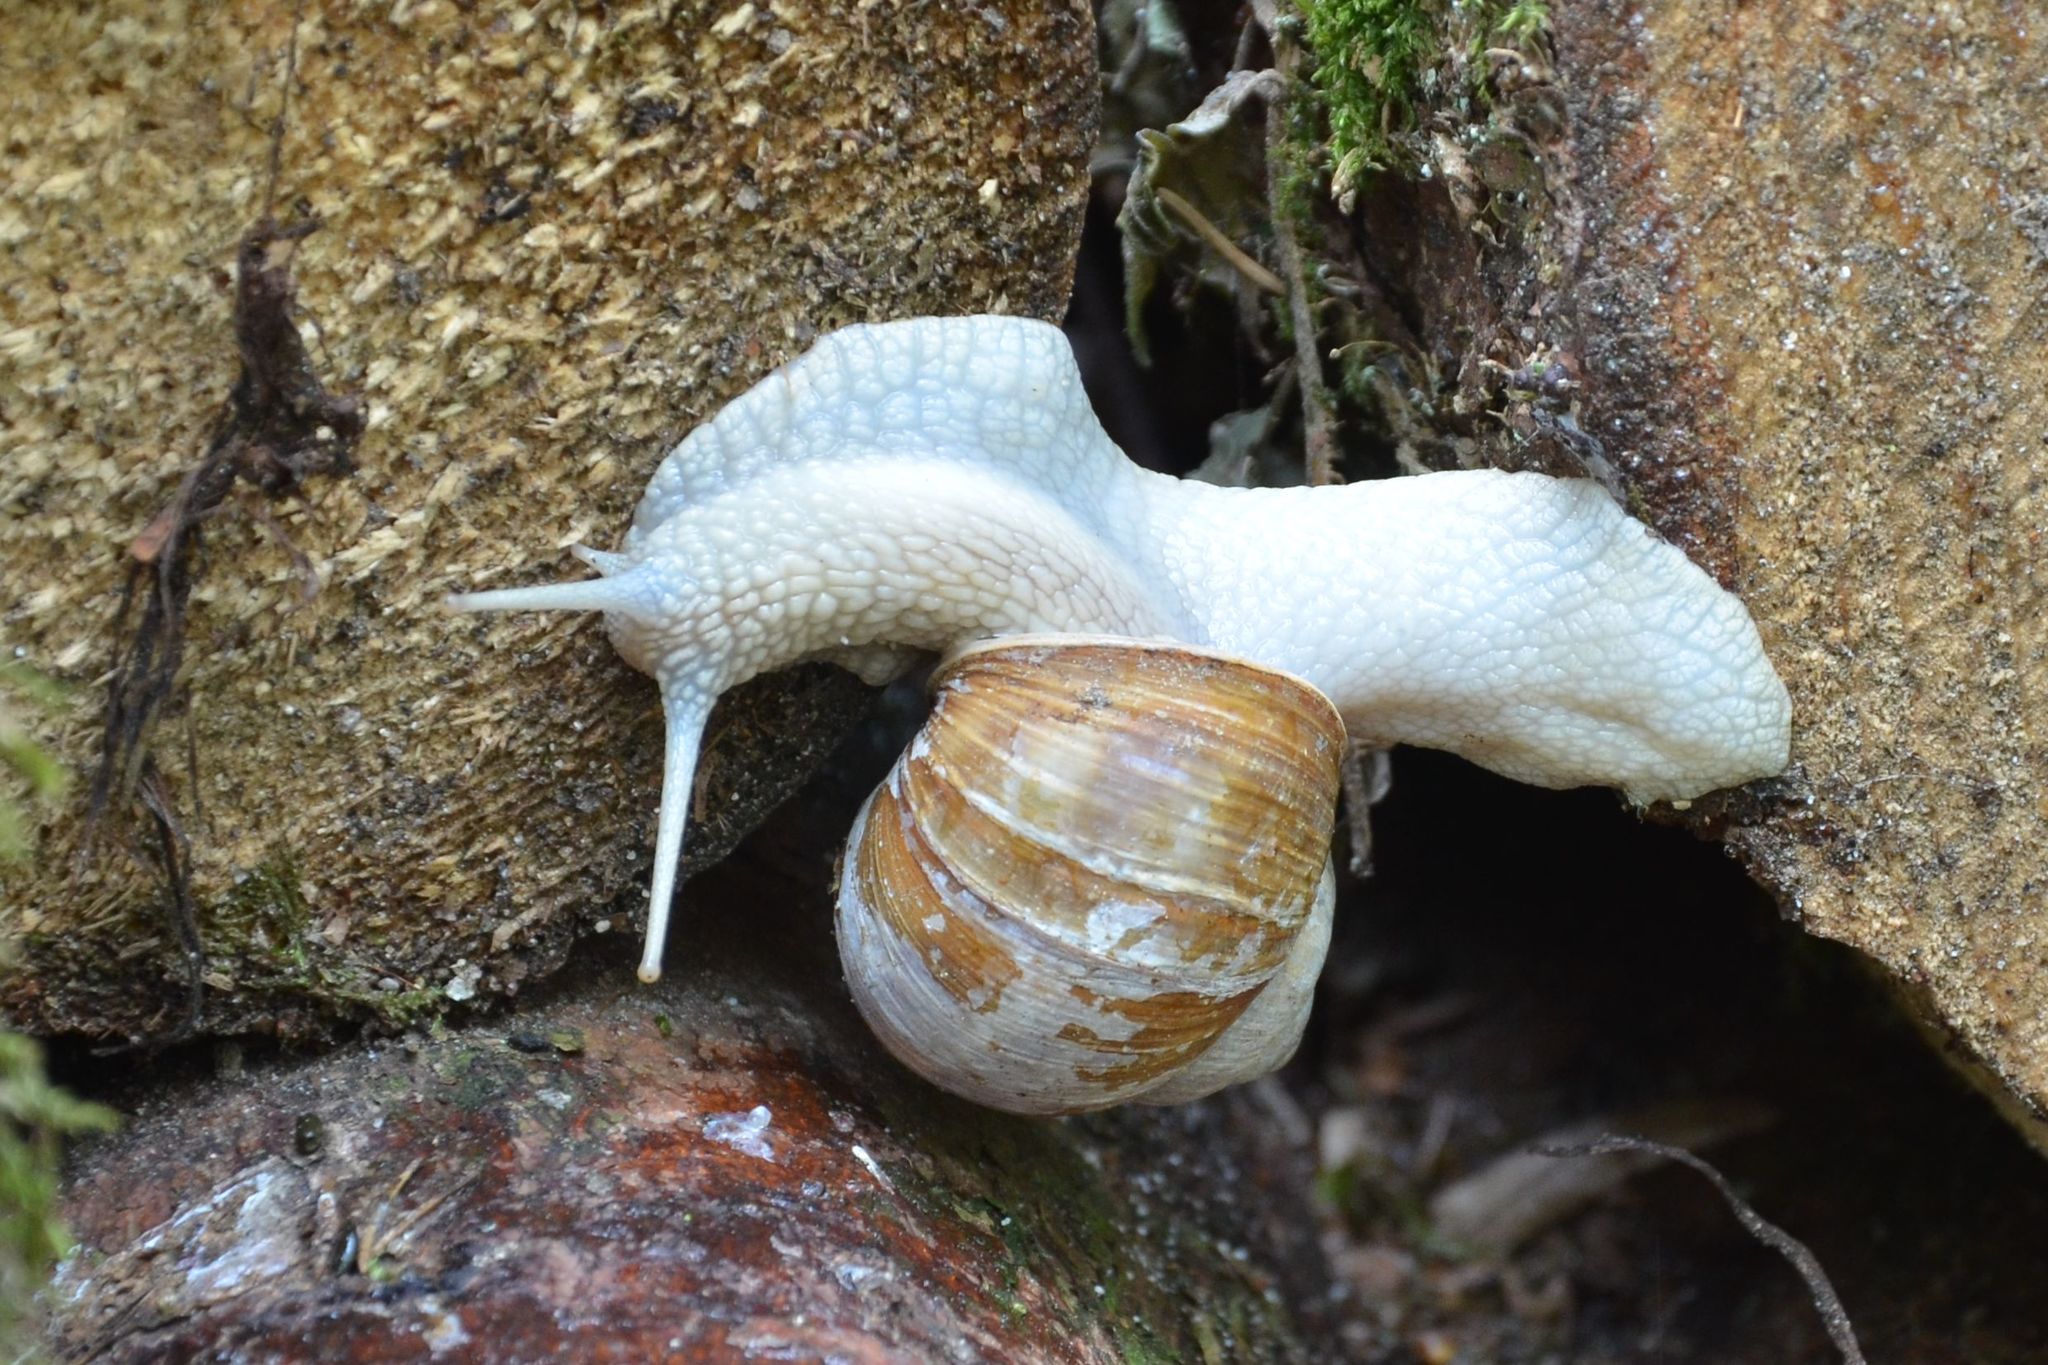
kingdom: Animalia
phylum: Mollusca
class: Gastropoda
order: Stylommatophora
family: Helicidae
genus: Helix
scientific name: Helix pomatia
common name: Roman snail
